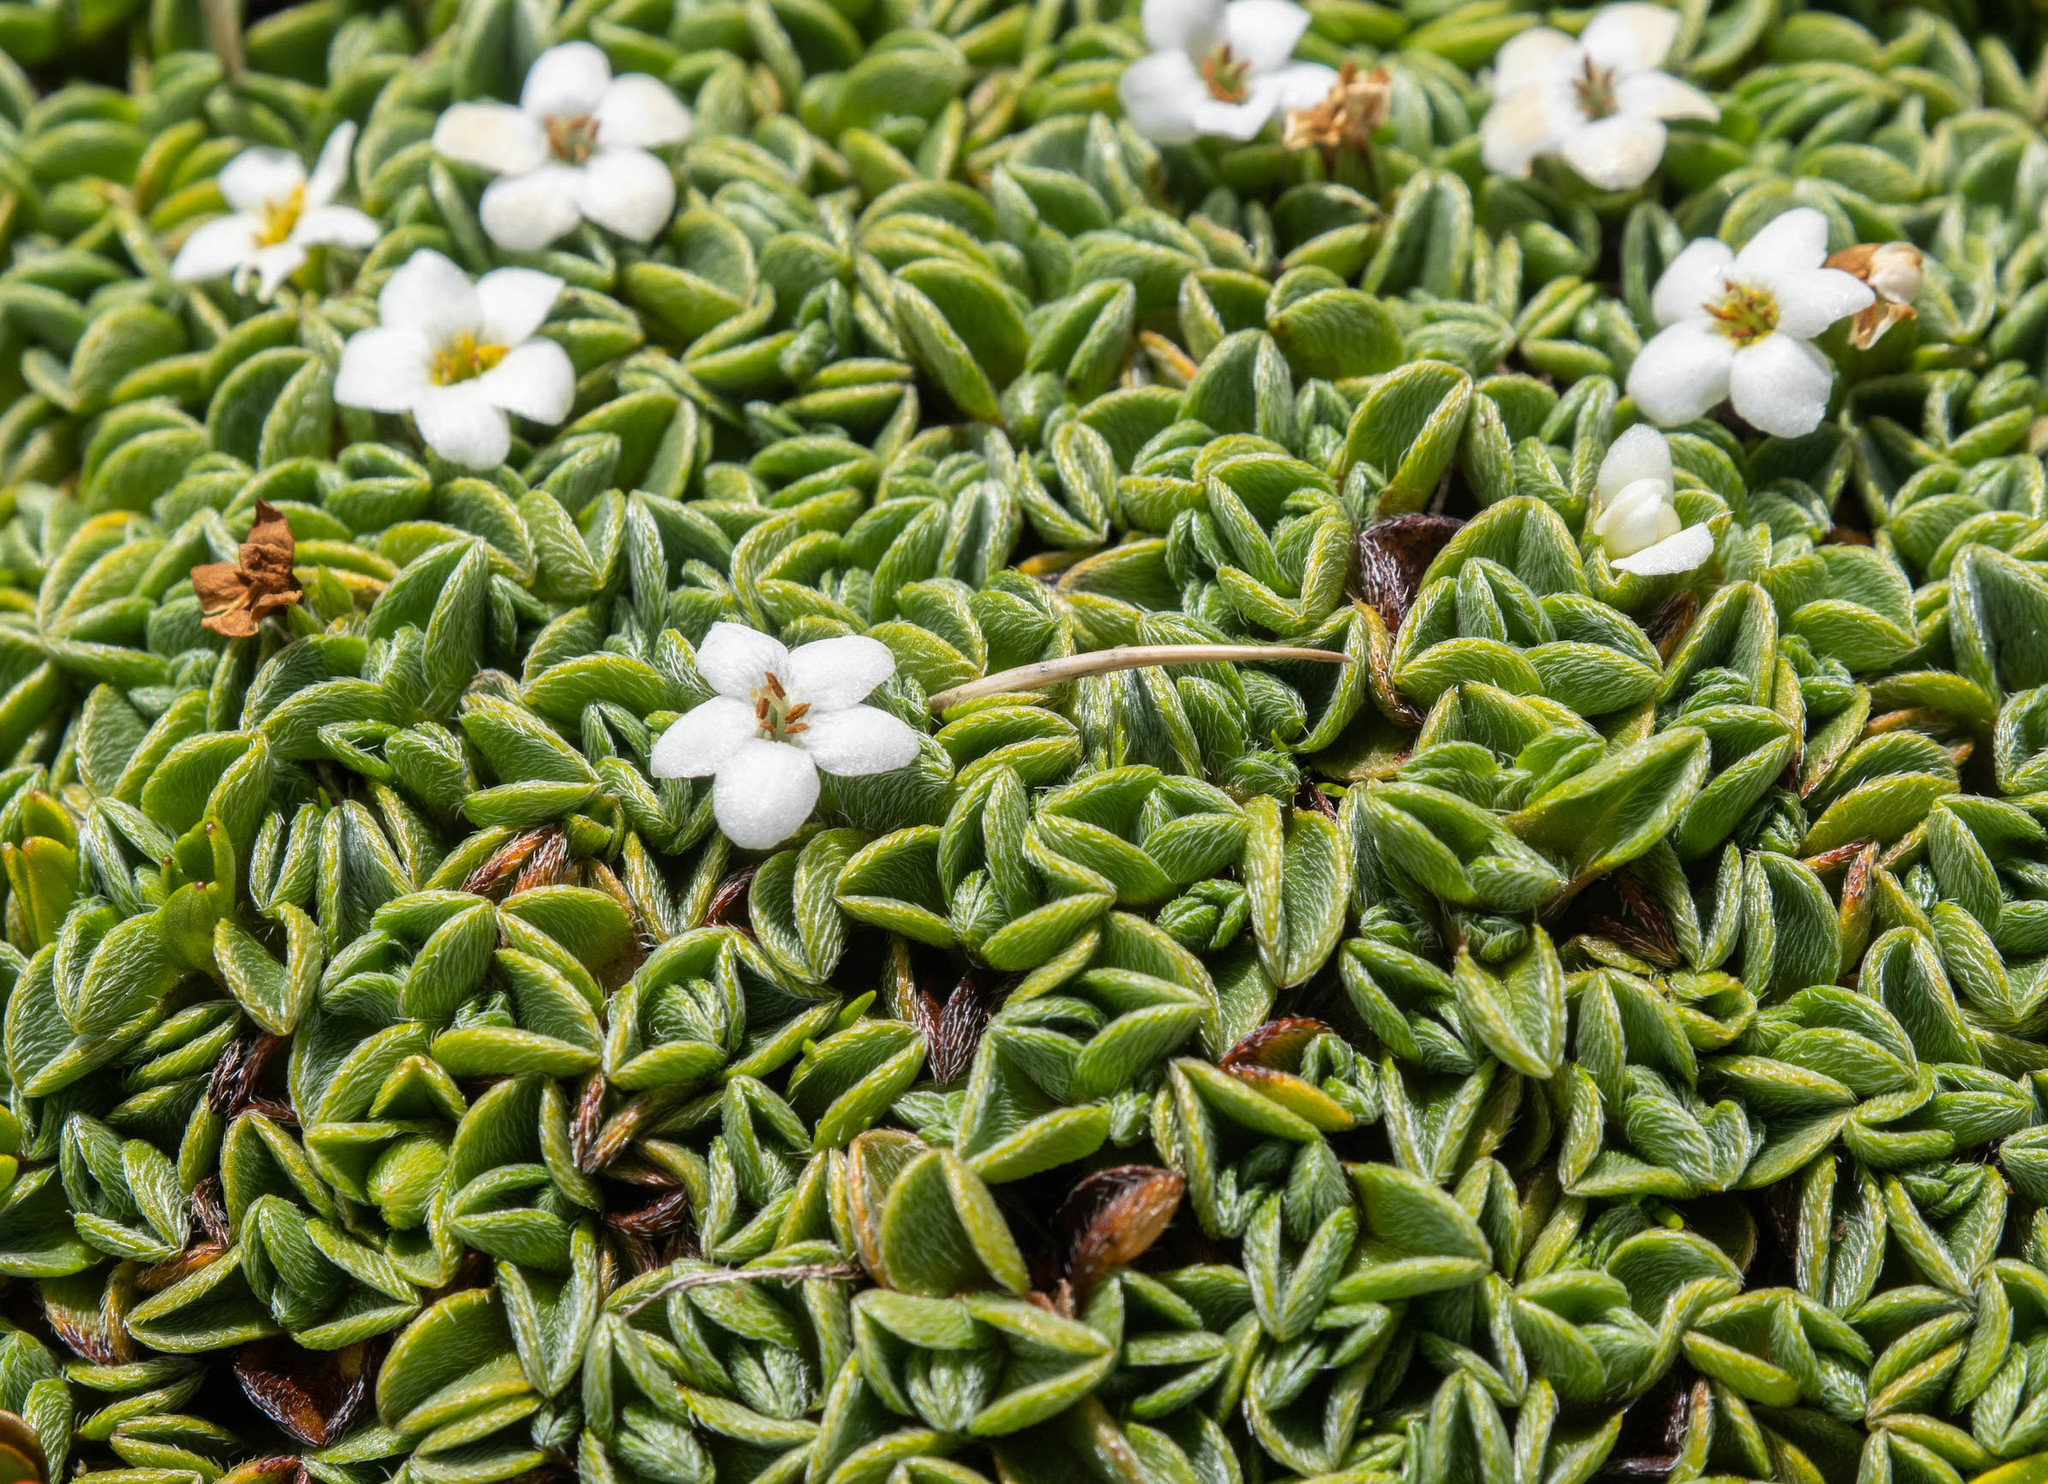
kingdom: Plantae
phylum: Tracheophyta
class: Magnoliopsida
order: Boraginales
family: Boraginaceae
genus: Myosotis
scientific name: Myosotis glabrescens
